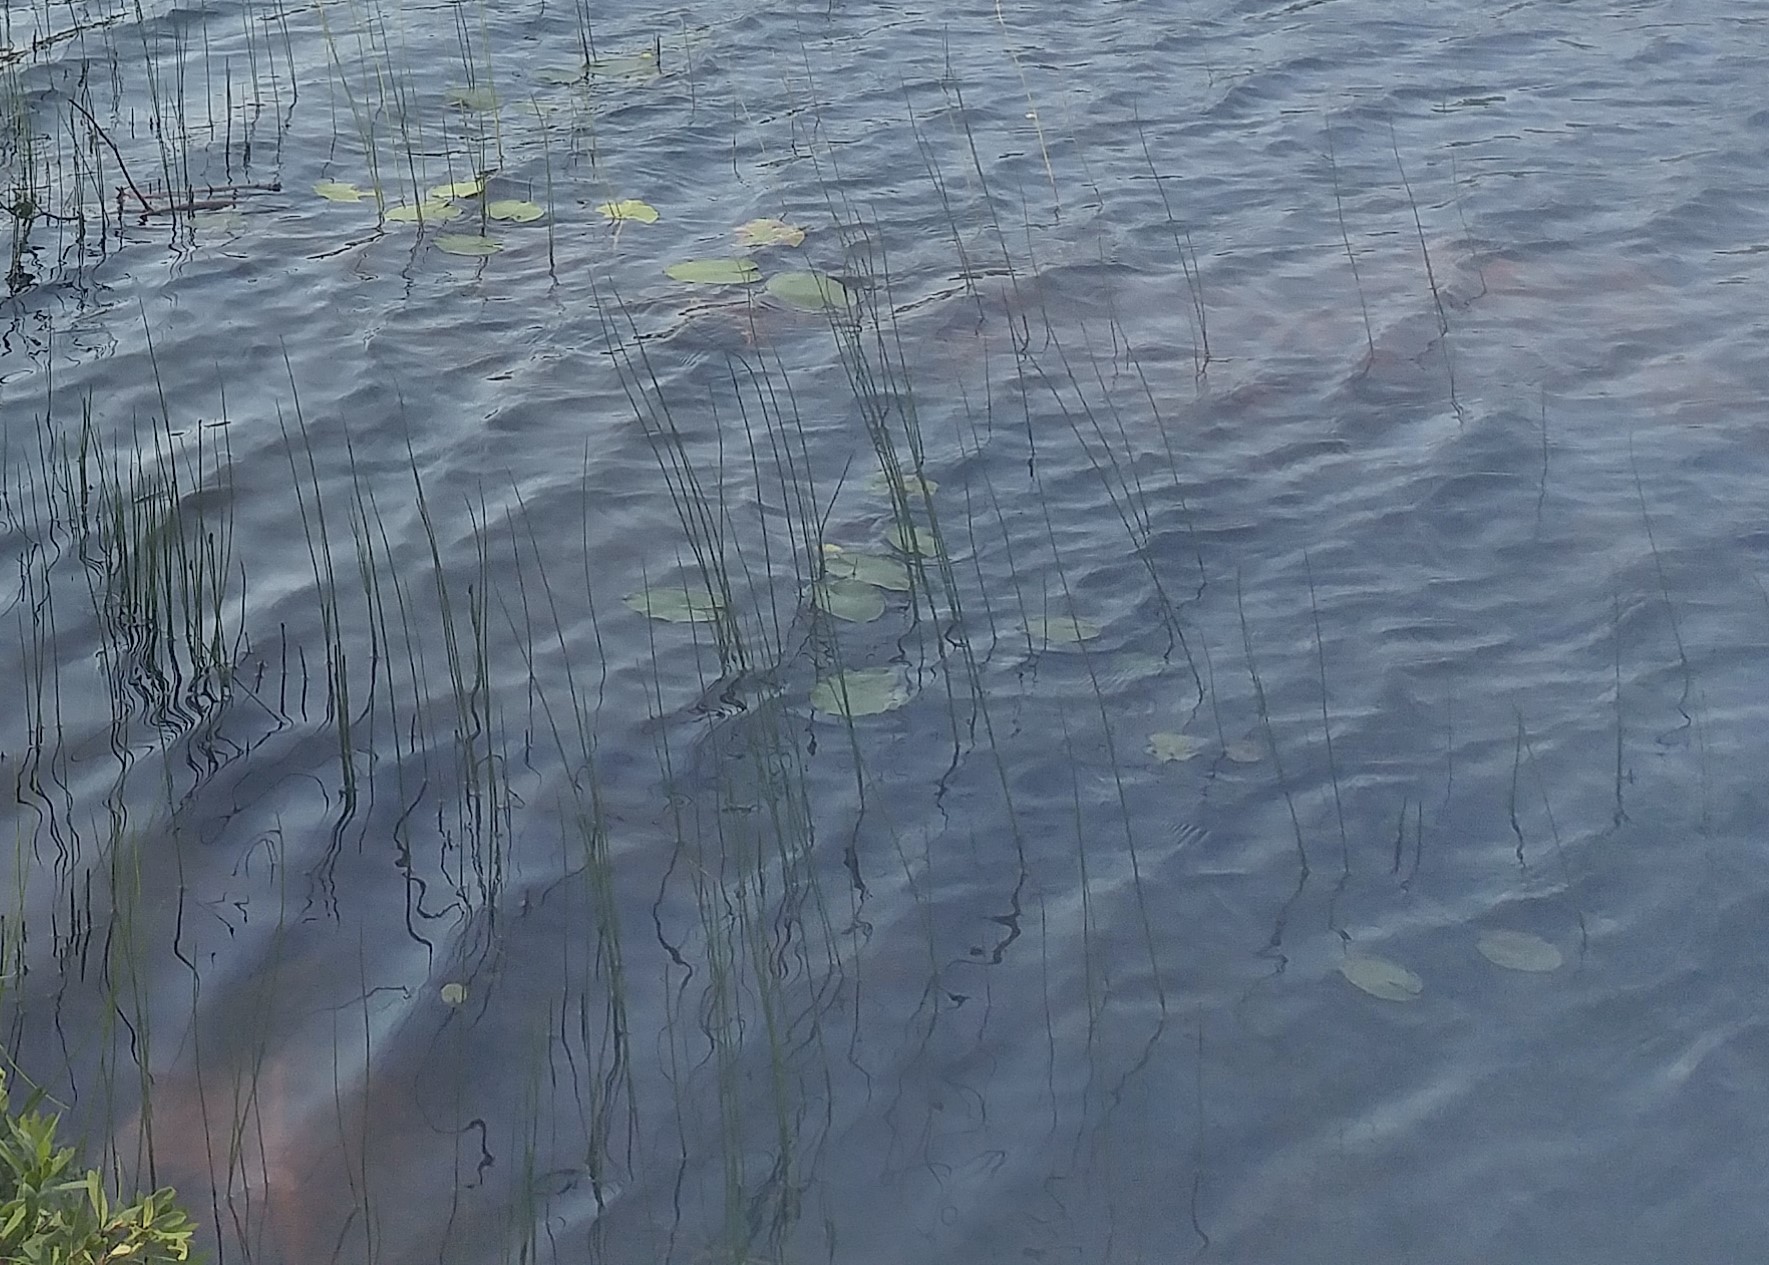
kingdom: Plantae
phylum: Tracheophyta
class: Magnoliopsida
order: Nymphaeales
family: Nymphaeaceae
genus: Nuphar
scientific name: Nuphar variegata
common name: Beaver-root
